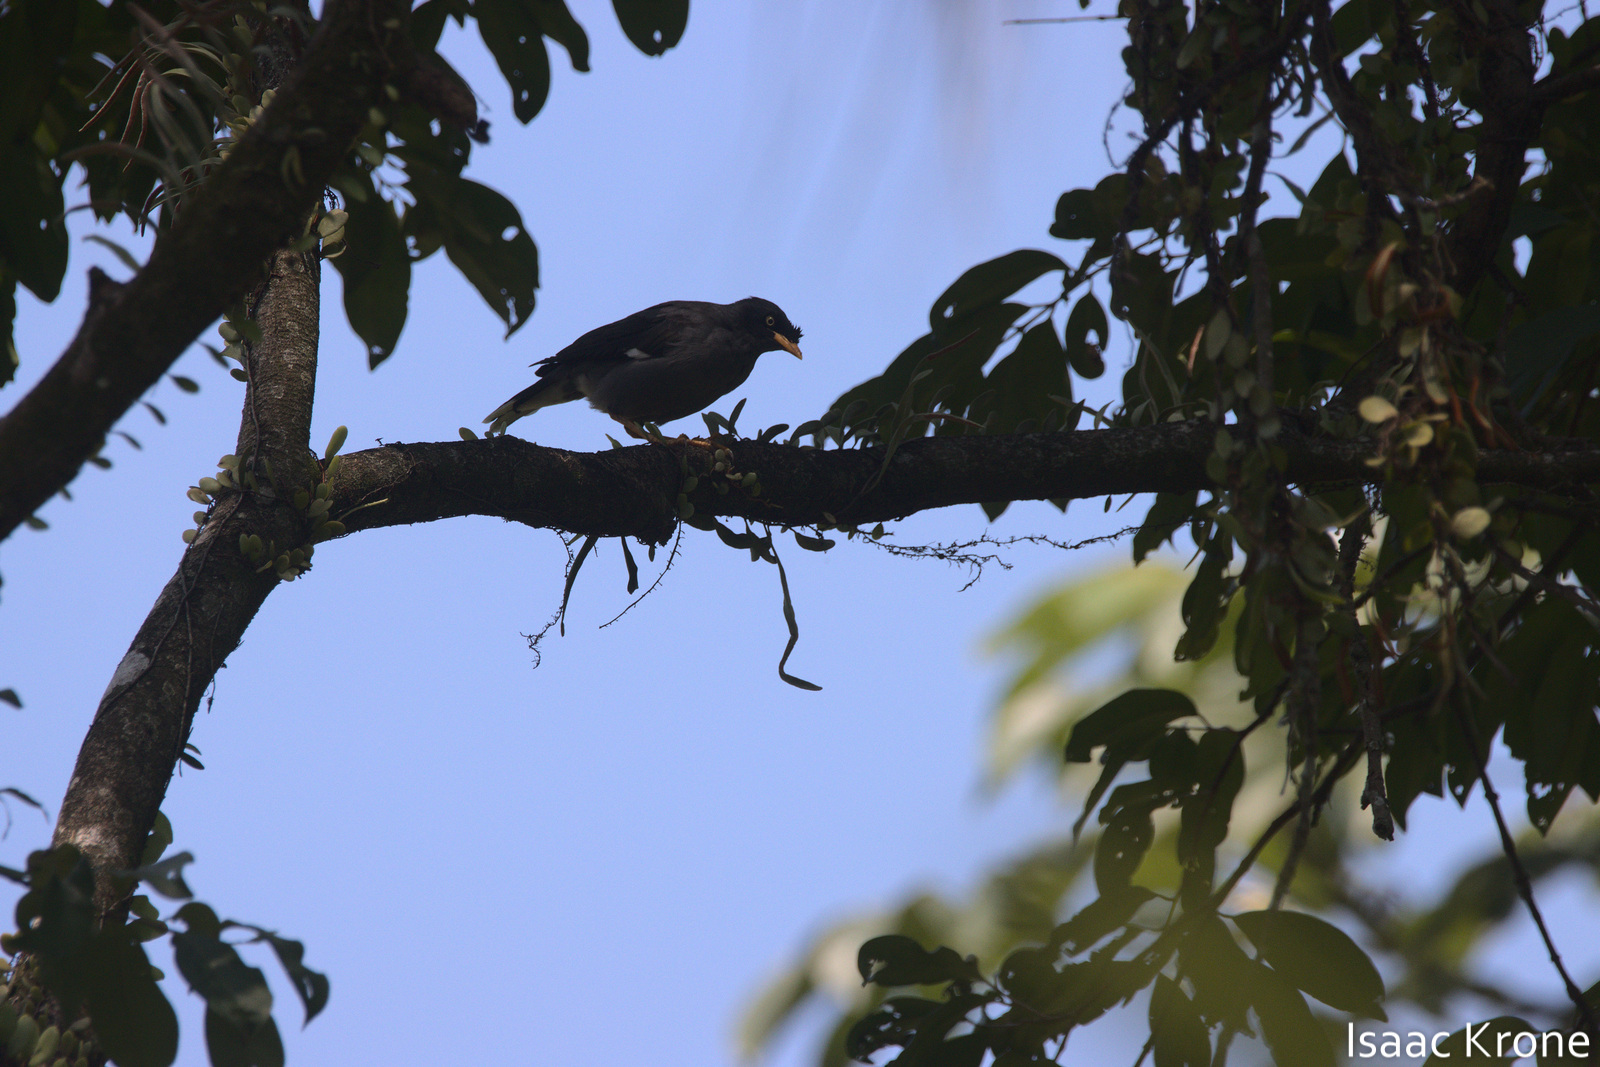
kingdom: Animalia
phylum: Chordata
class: Aves
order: Passeriformes
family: Sturnidae
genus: Acridotheres
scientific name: Acridotheres javanicus
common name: Javan myna
